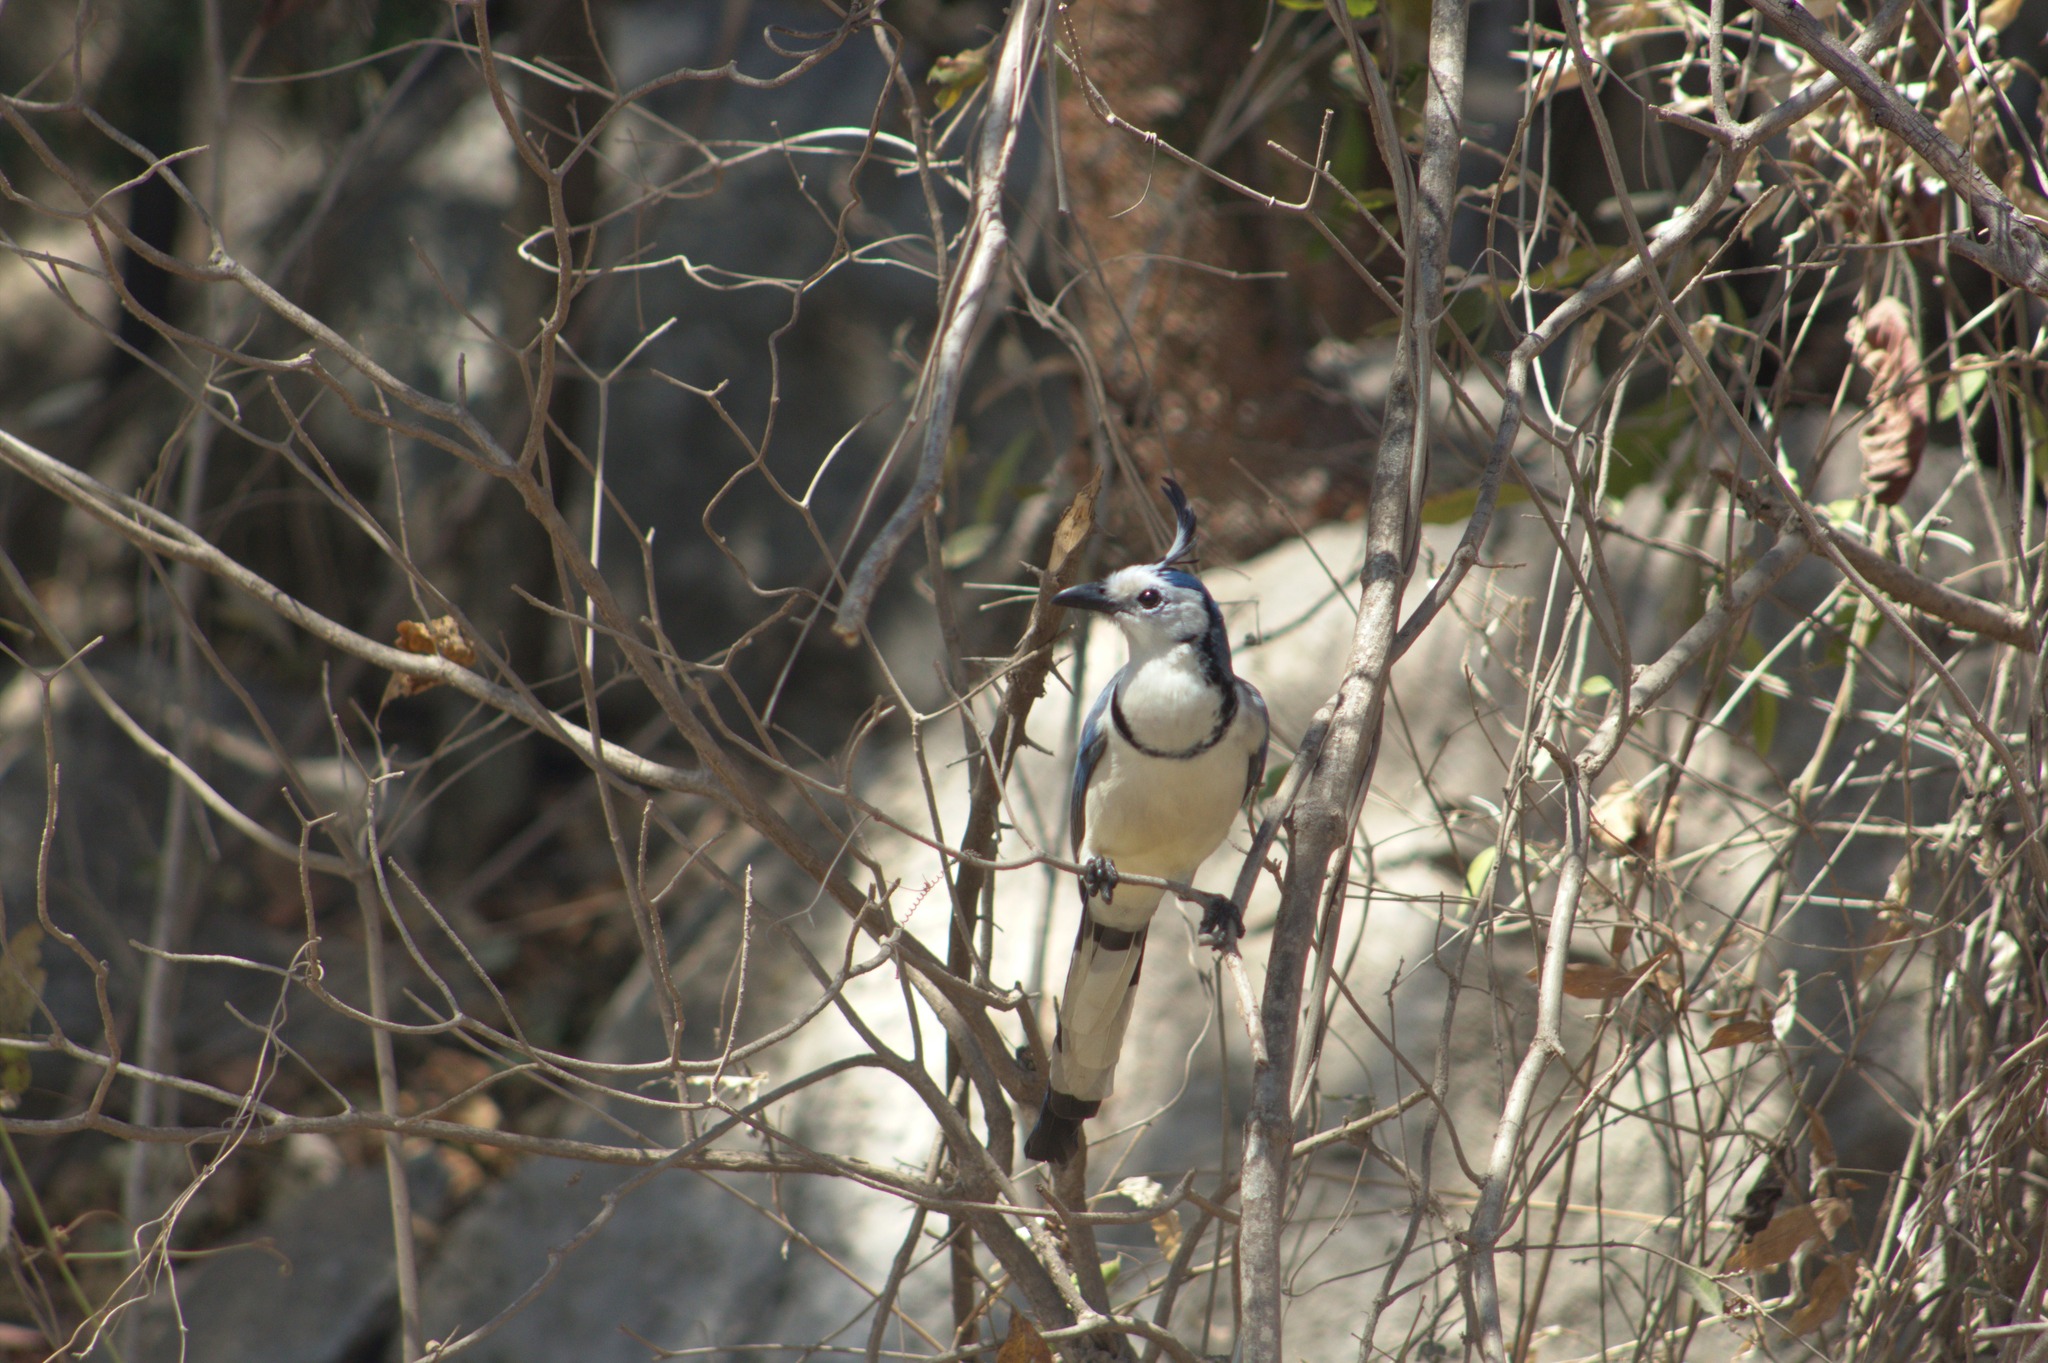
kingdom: Animalia
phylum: Chordata
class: Aves
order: Passeriformes
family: Corvidae
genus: Calocitta
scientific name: Calocitta formosa
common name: White-throated magpie-jay
